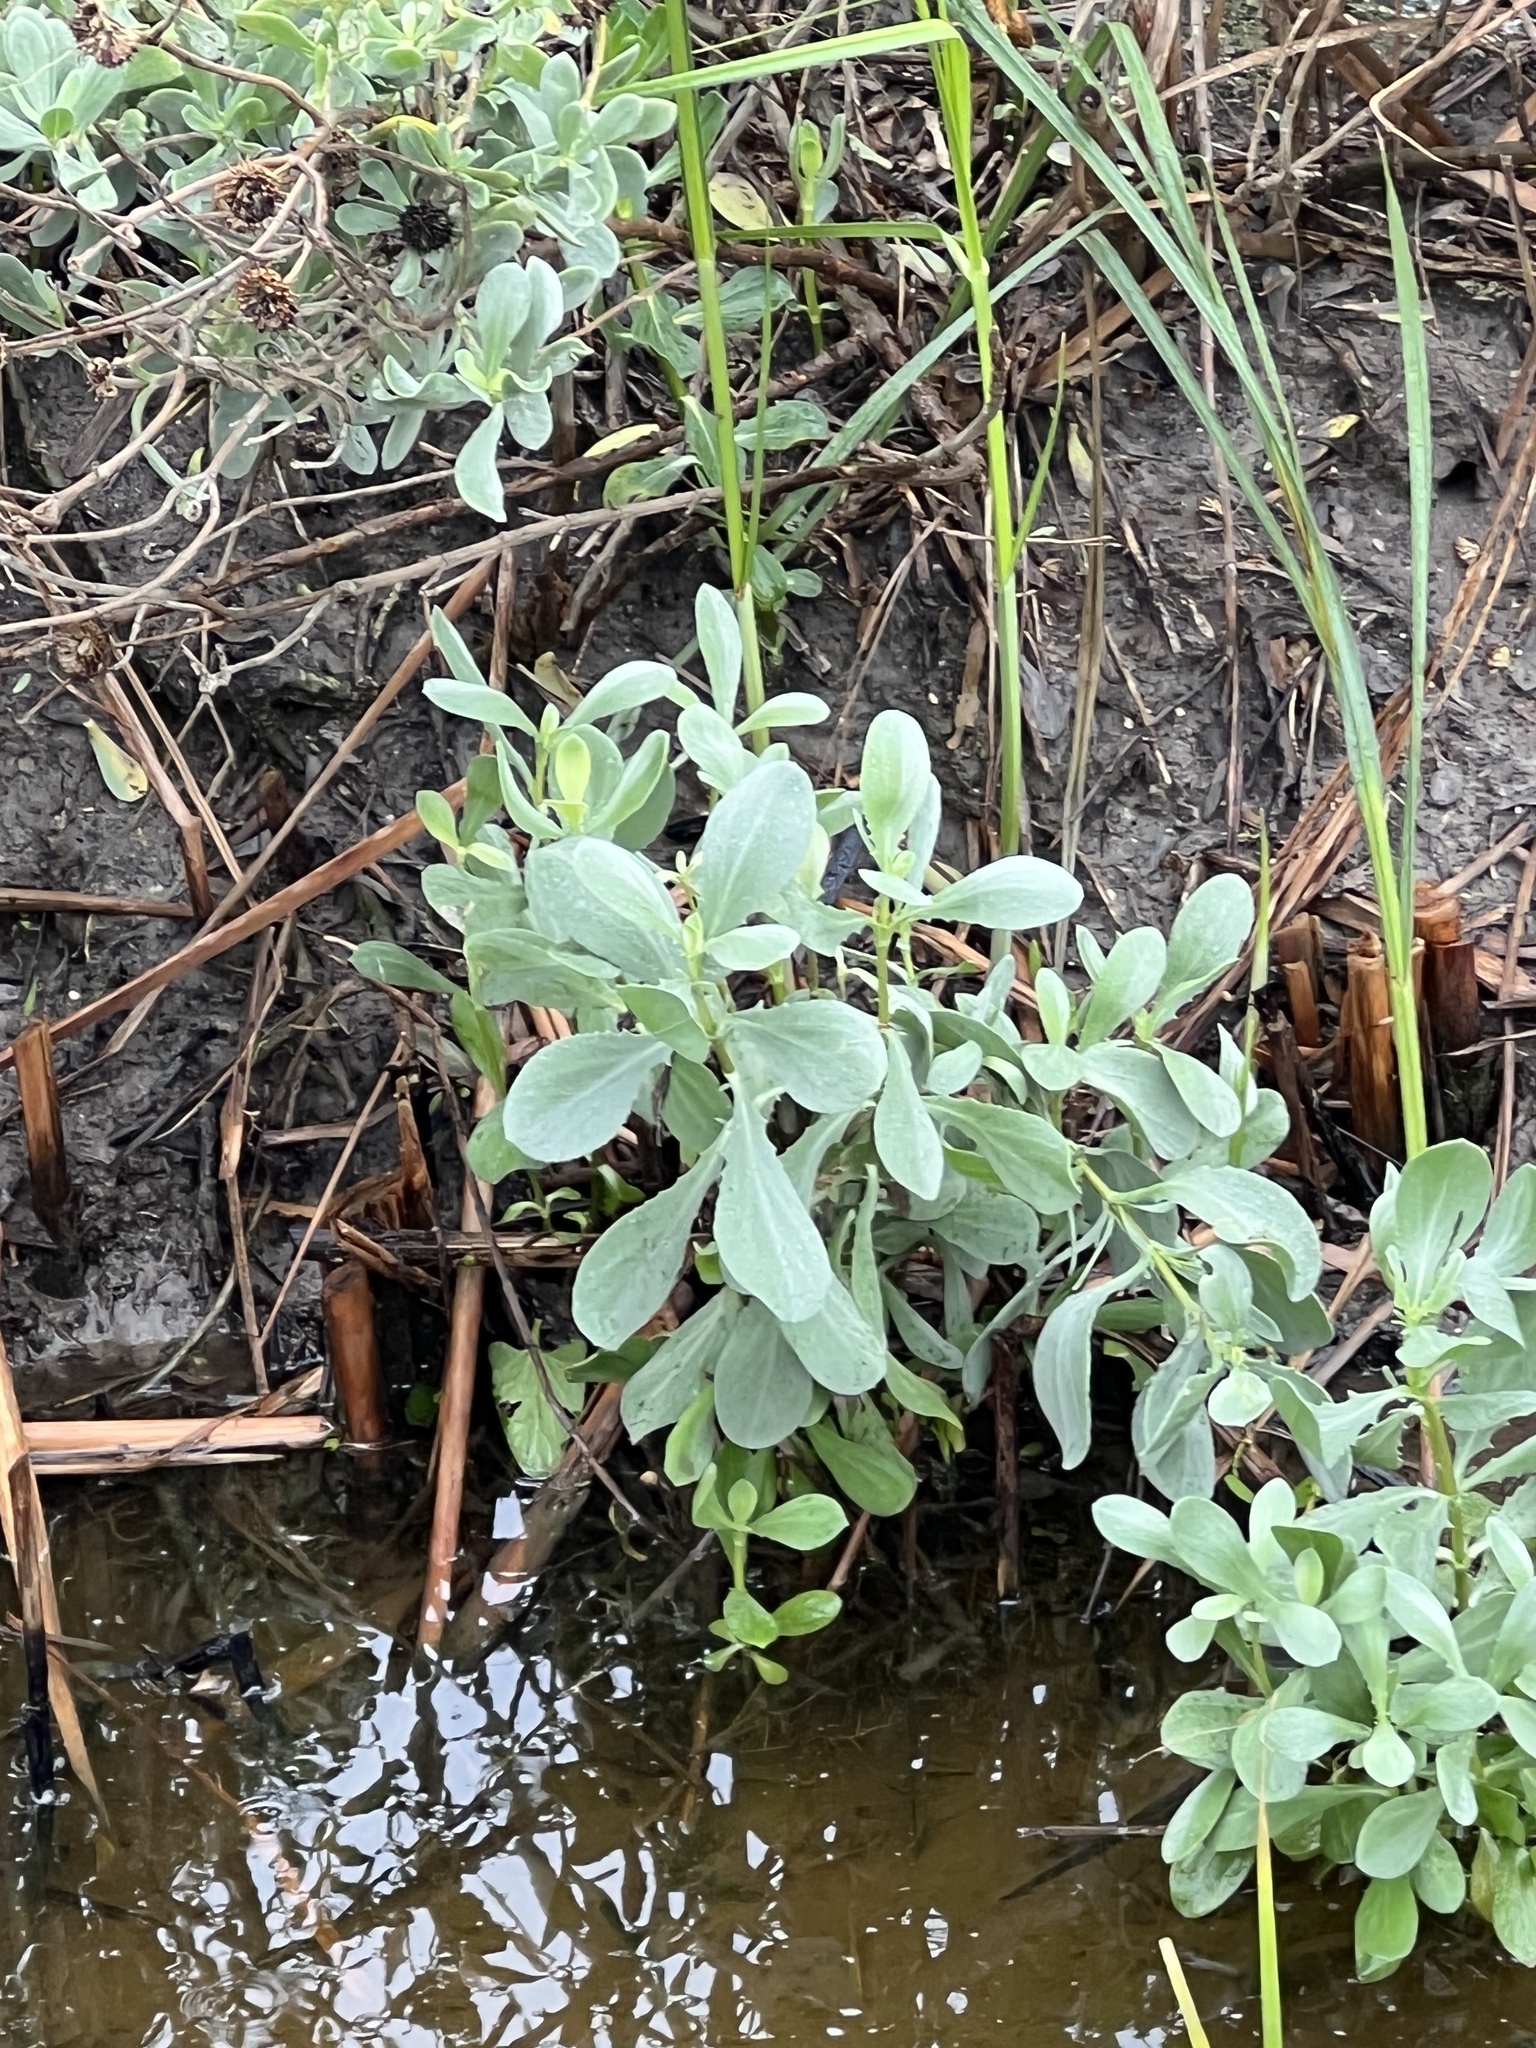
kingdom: Plantae
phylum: Tracheophyta
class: Magnoliopsida
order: Asterales
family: Asteraceae
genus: Borrichia
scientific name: Borrichia frutescens
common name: Sea oxeye
